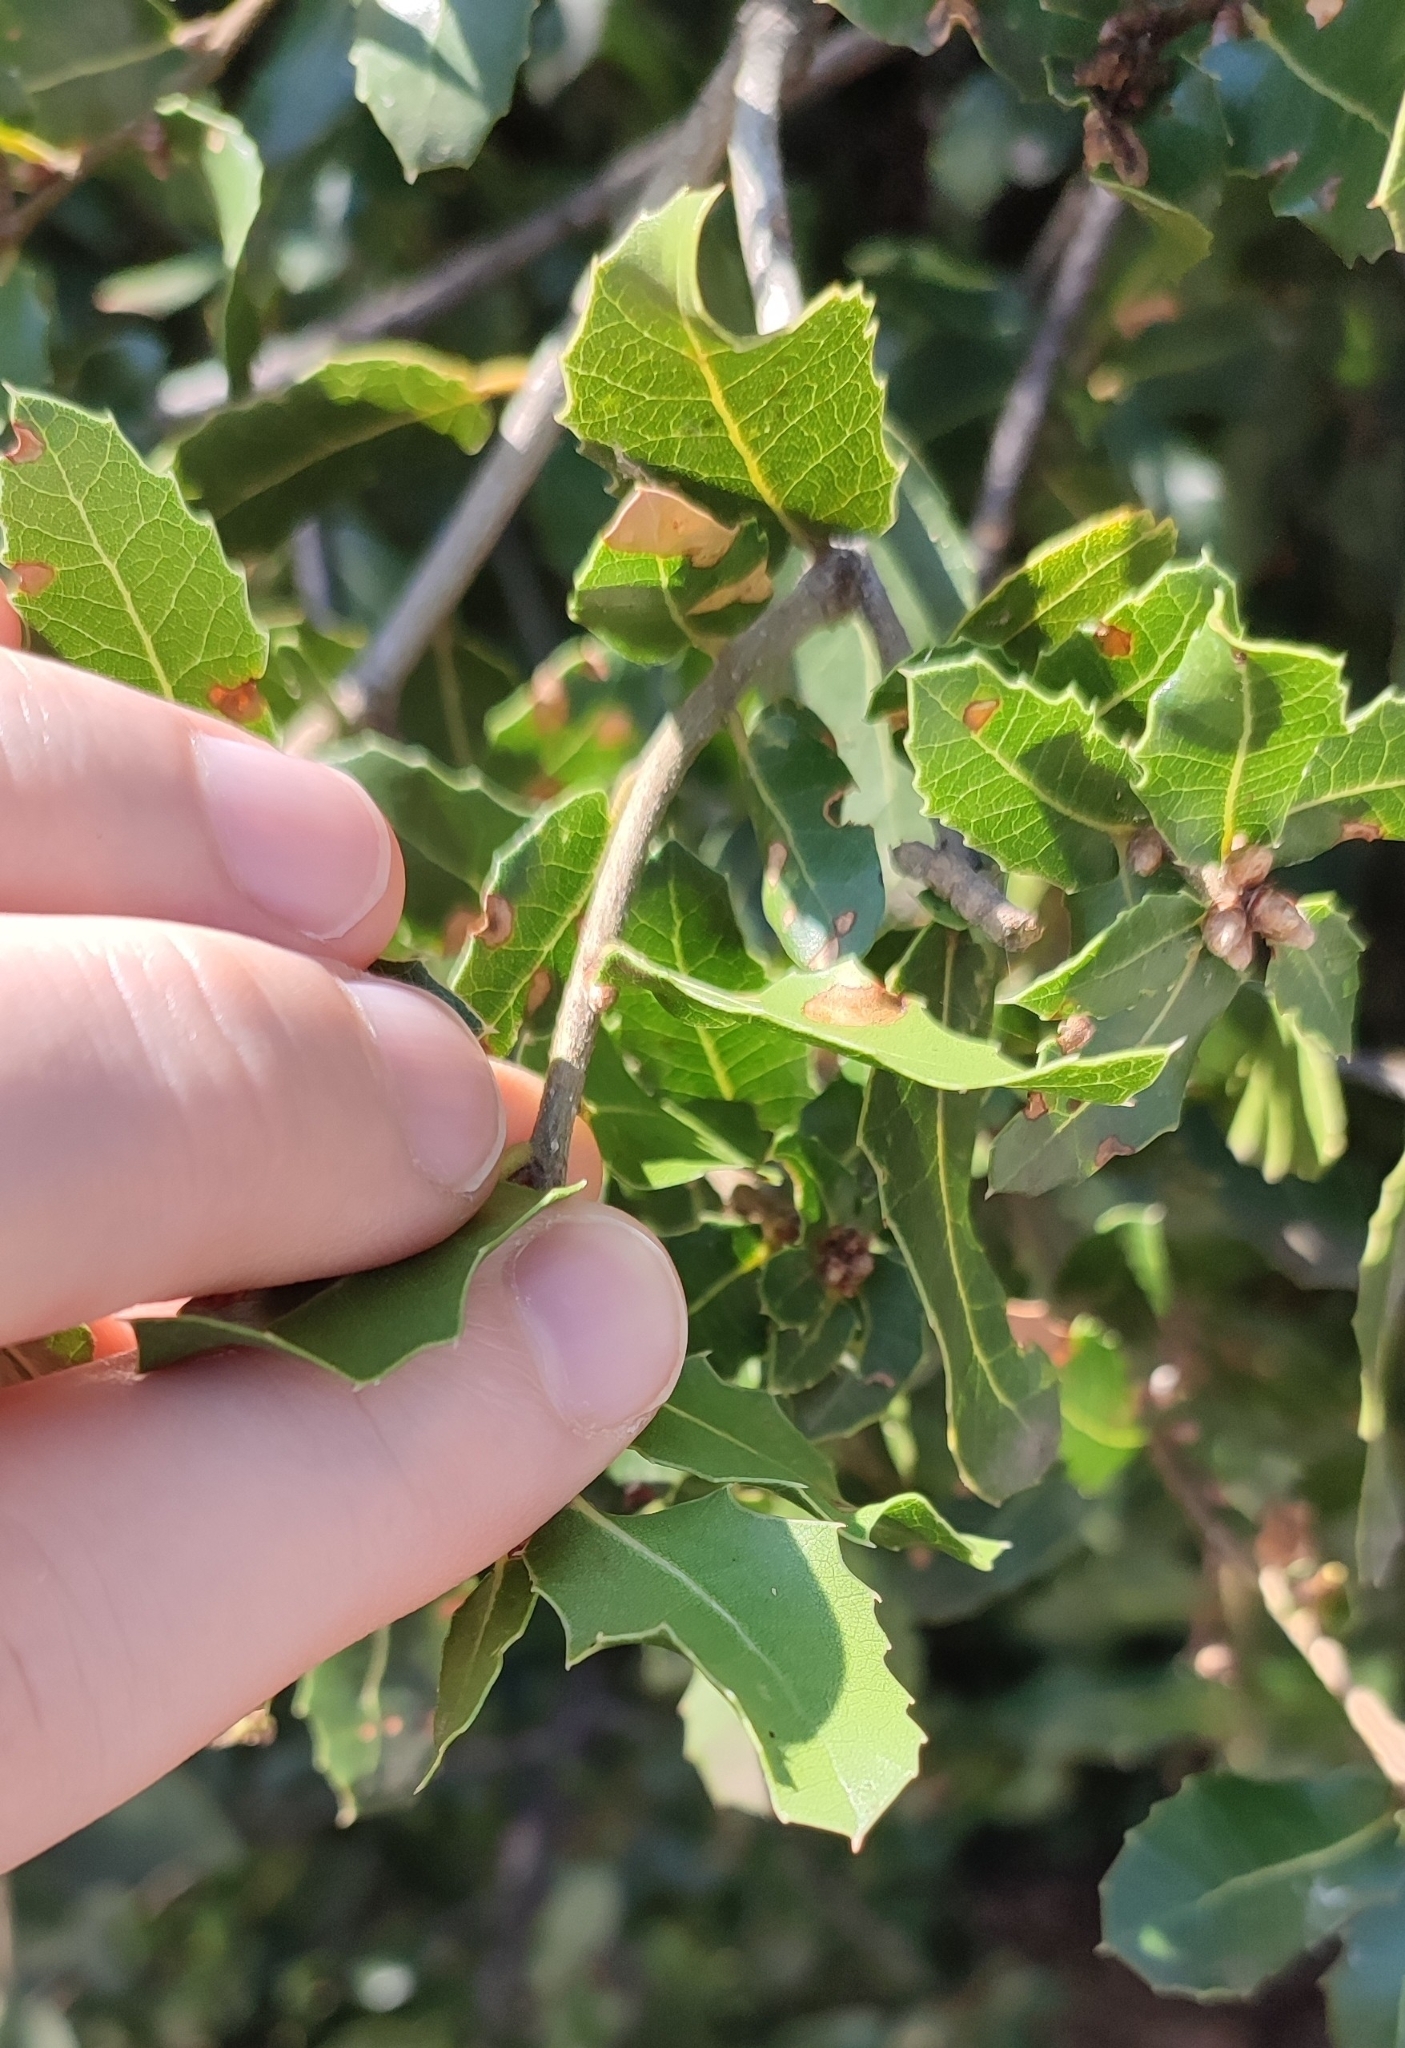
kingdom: Plantae
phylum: Tracheophyta
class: Magnoliopsida
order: Fagales
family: Fagaceae
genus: Quercus
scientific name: Quercus coccifera
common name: Kermes oak
